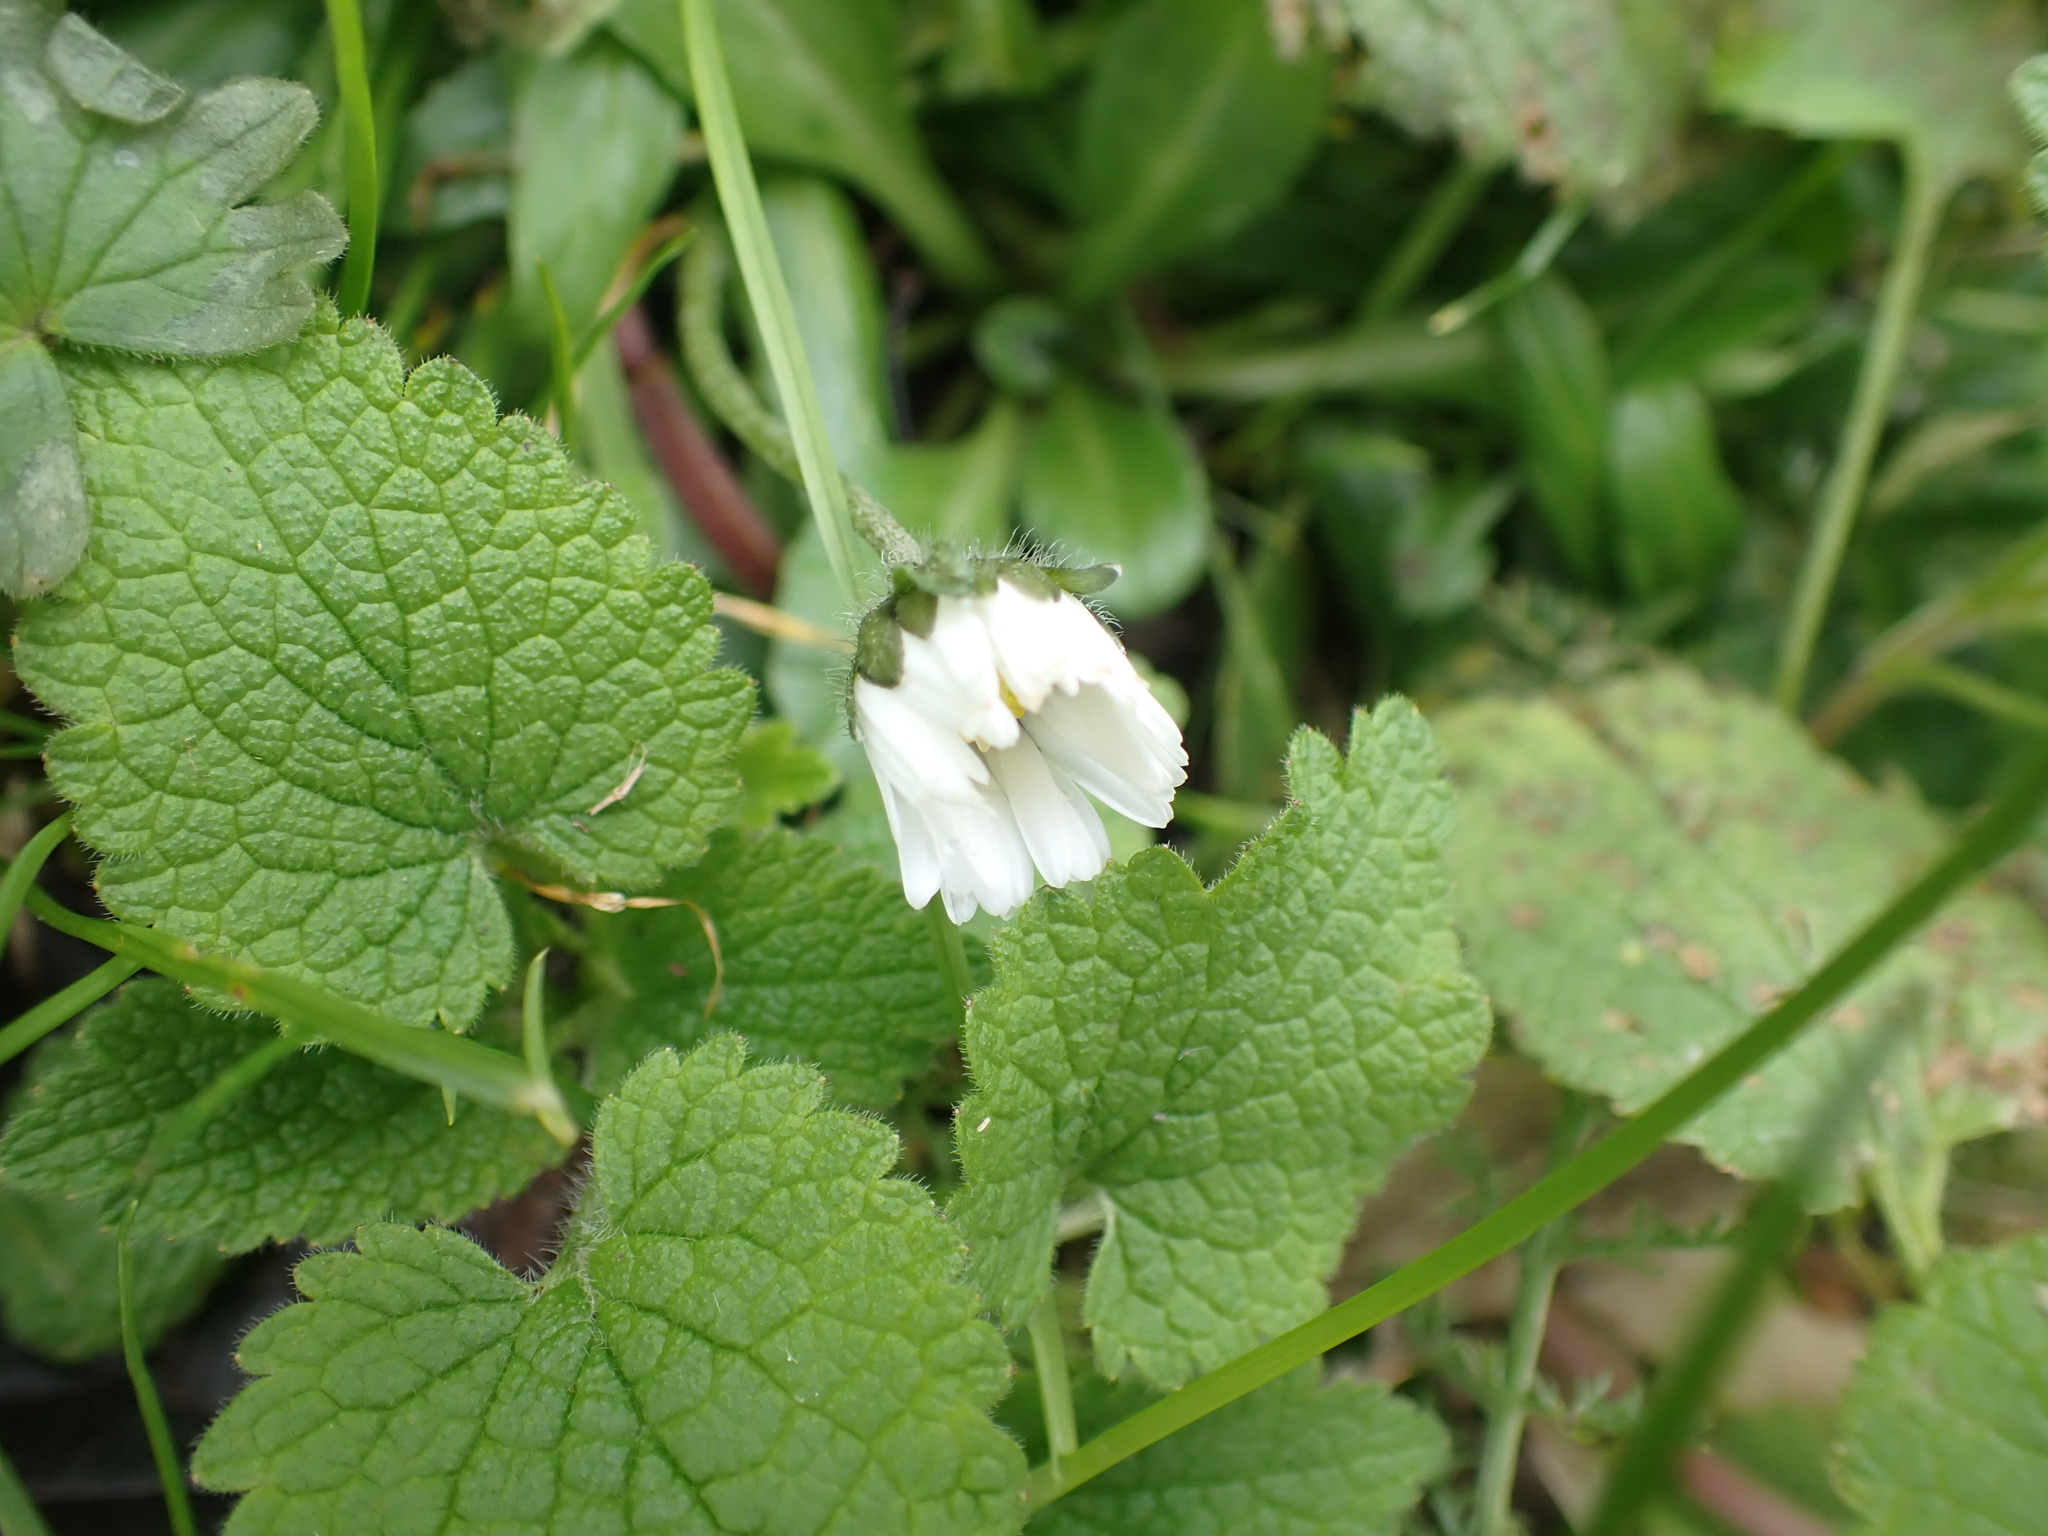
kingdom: Plantae
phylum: Tracheophyta
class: Magnoliopsida
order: Asterales
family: Asteraceae
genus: Bellis
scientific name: Bellis perennis
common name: Lawndaisy
